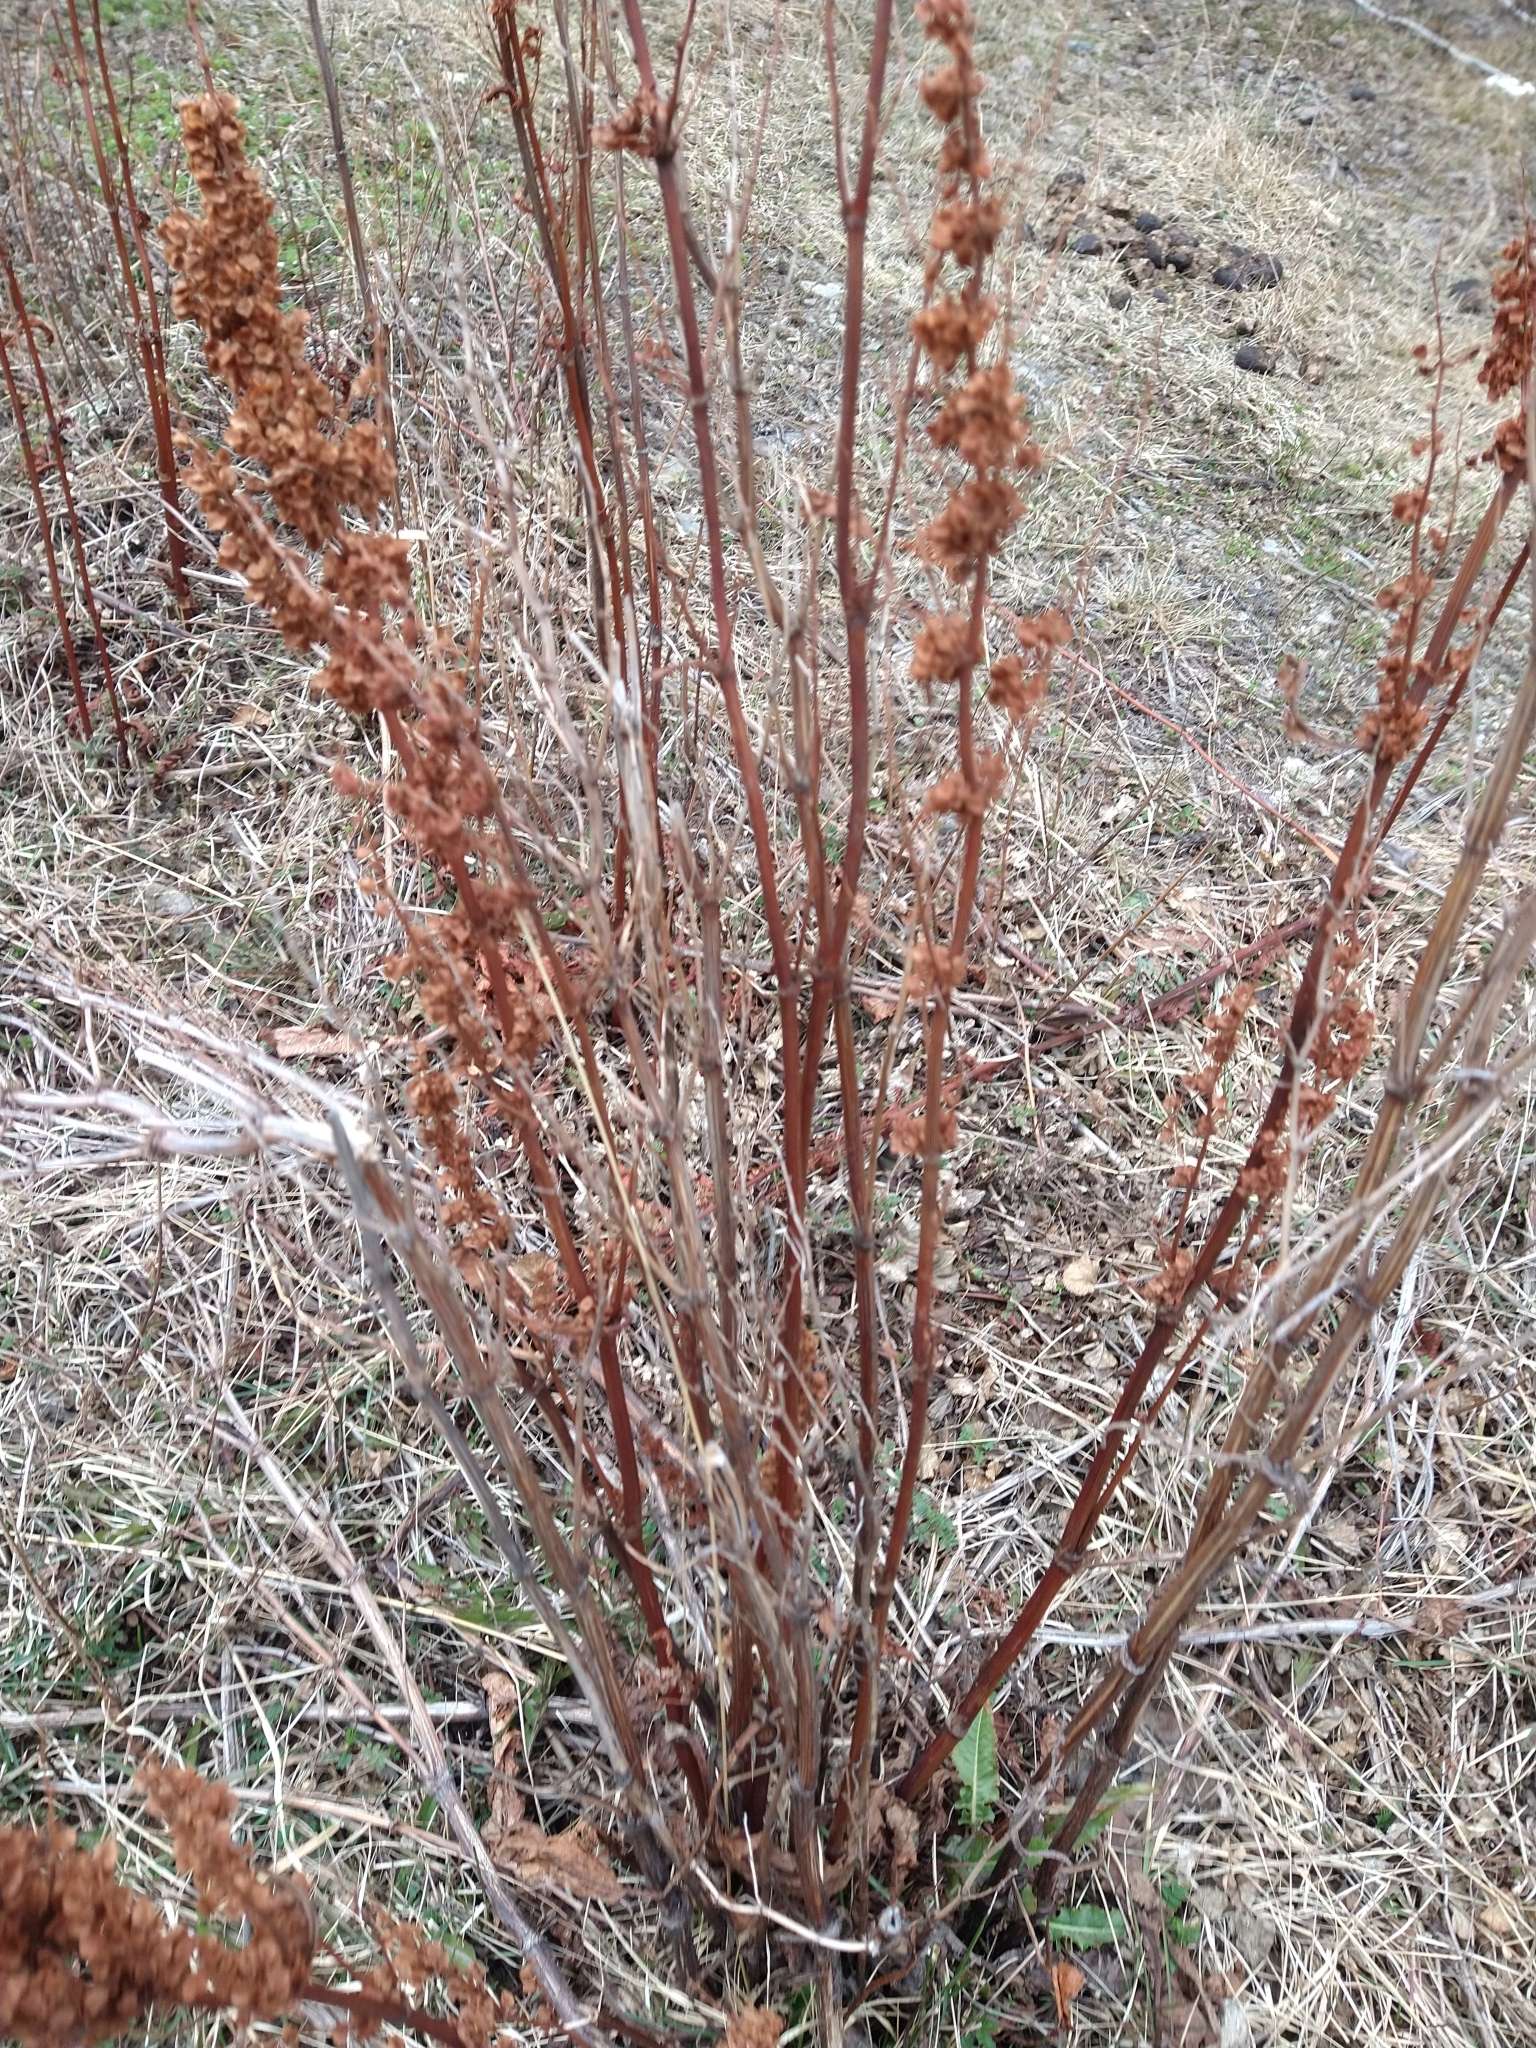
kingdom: Plantae
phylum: Tracheophyta
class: Magnoliopsida
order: Caryophyllales
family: Polygonaceae
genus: Rumex
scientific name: Rumex crispus
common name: Curled dock
